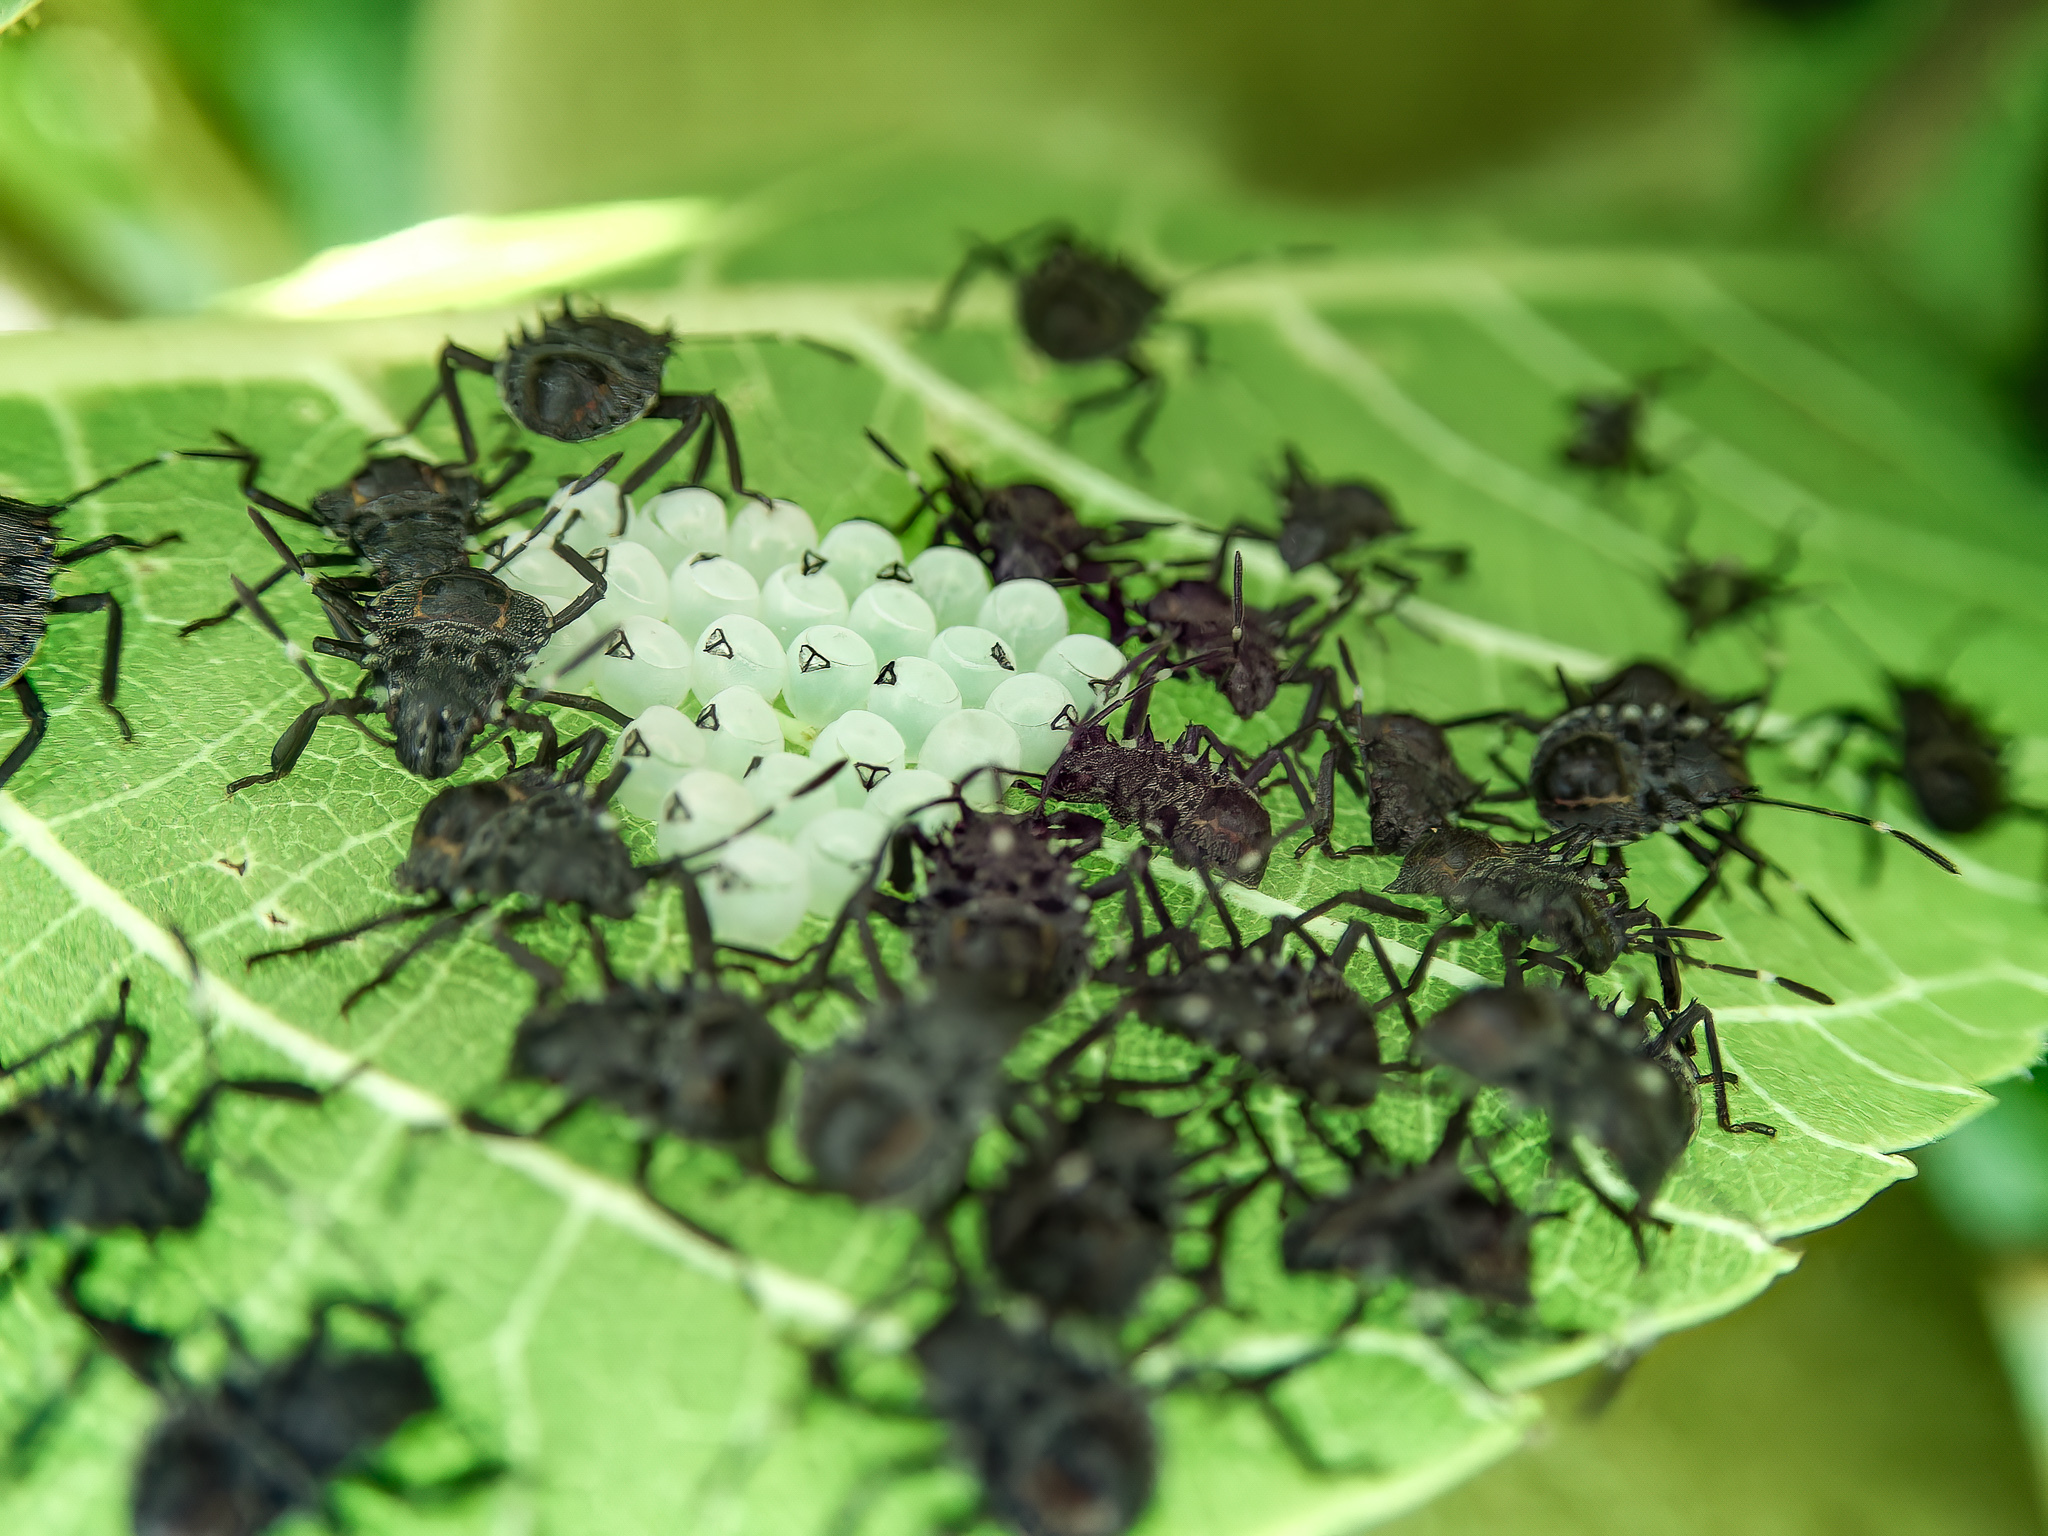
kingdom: Animalia
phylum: Arthropoda
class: Insecta
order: Hemiptera
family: Pentatomidae
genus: Halyomorpha
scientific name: Halyomorpha halys
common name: Brown marmorated stink bug
